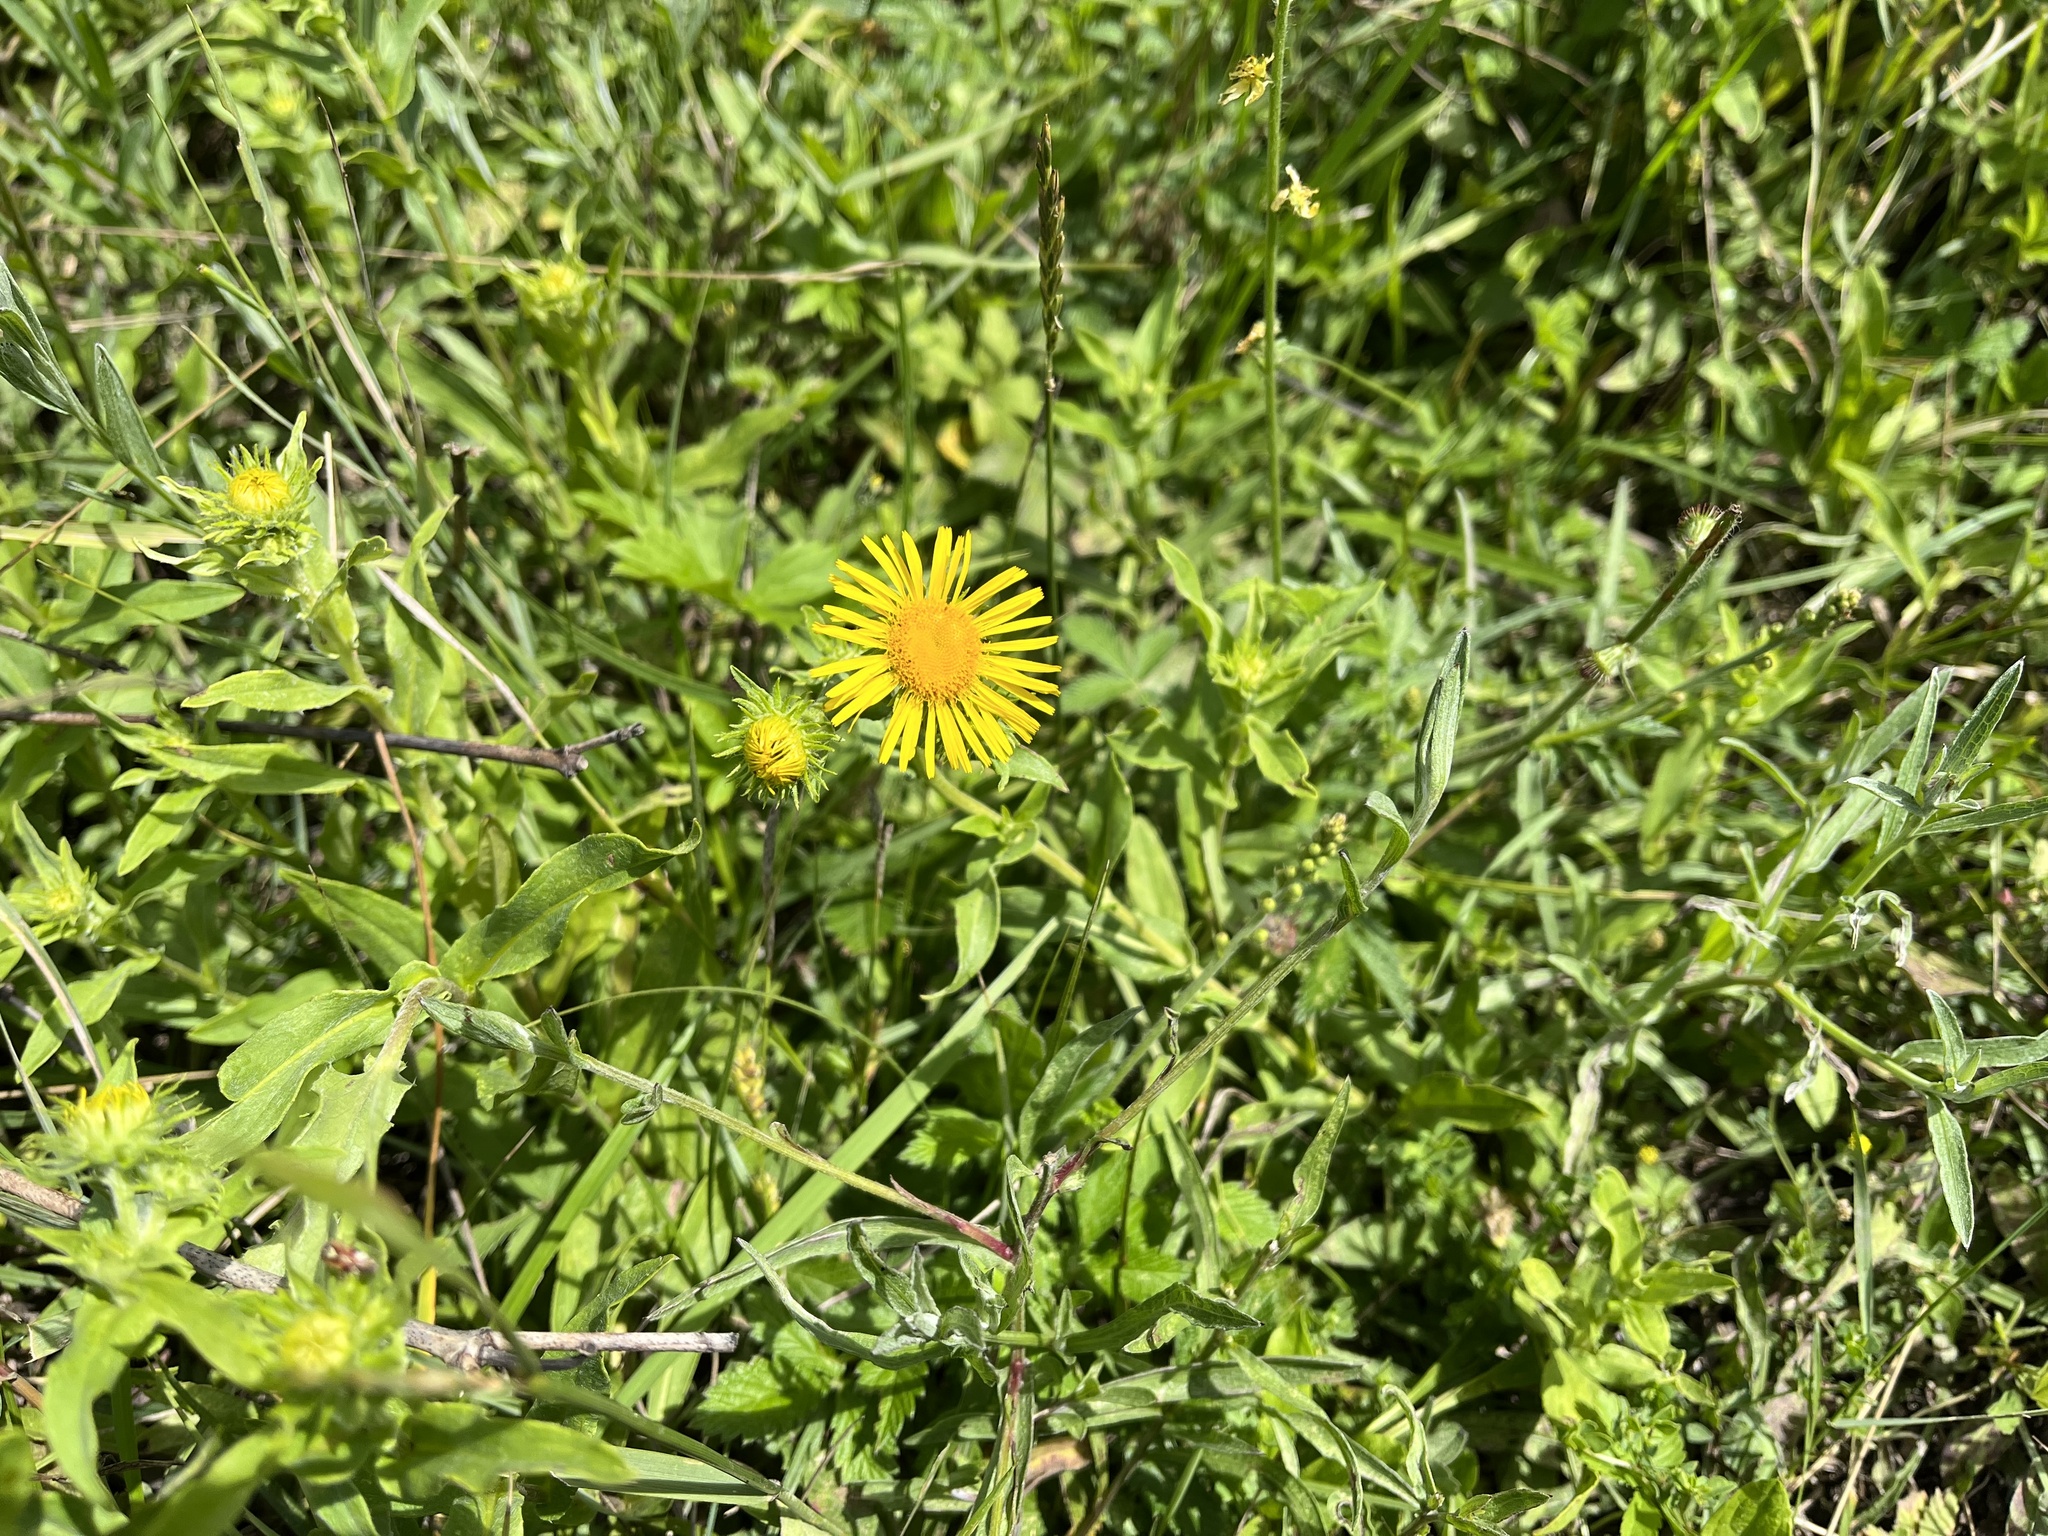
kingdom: Plantae
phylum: Tracheophyta
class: Magnoliopsida
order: Asterales
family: Asteraceae
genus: Pentanema
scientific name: Pentanema britannicum
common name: British elecampane
